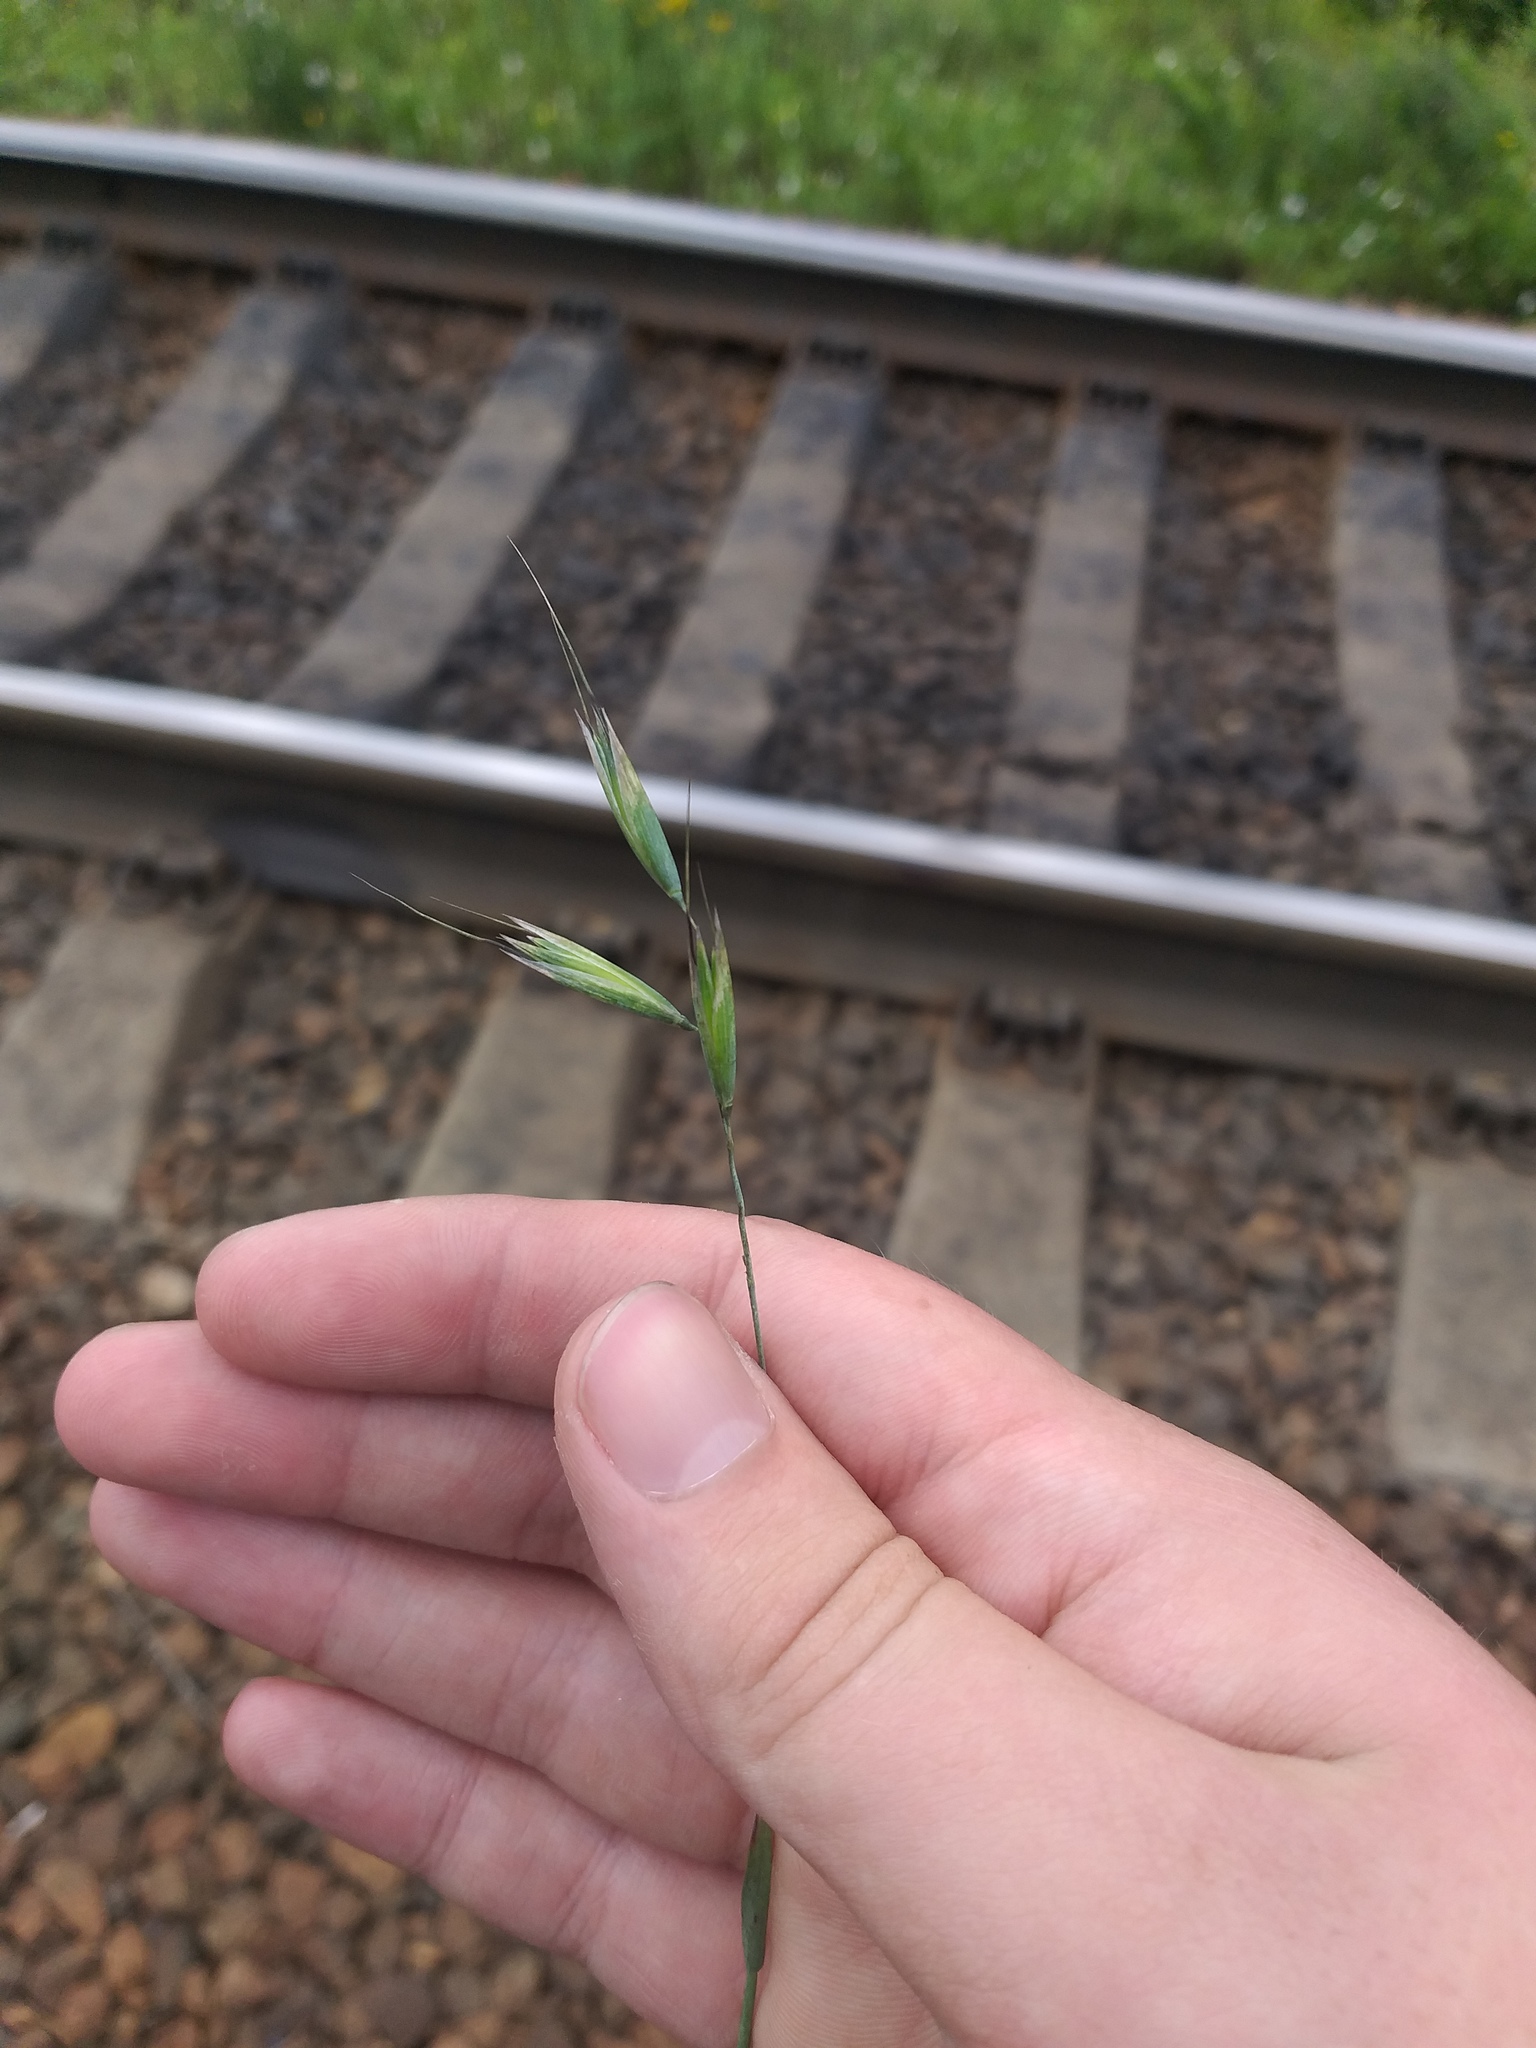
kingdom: Plantae
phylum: Tracheophyta
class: Liliopsida
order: Poales
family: Poaceae
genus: Avena
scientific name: Avena fatua
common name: Wild oat
